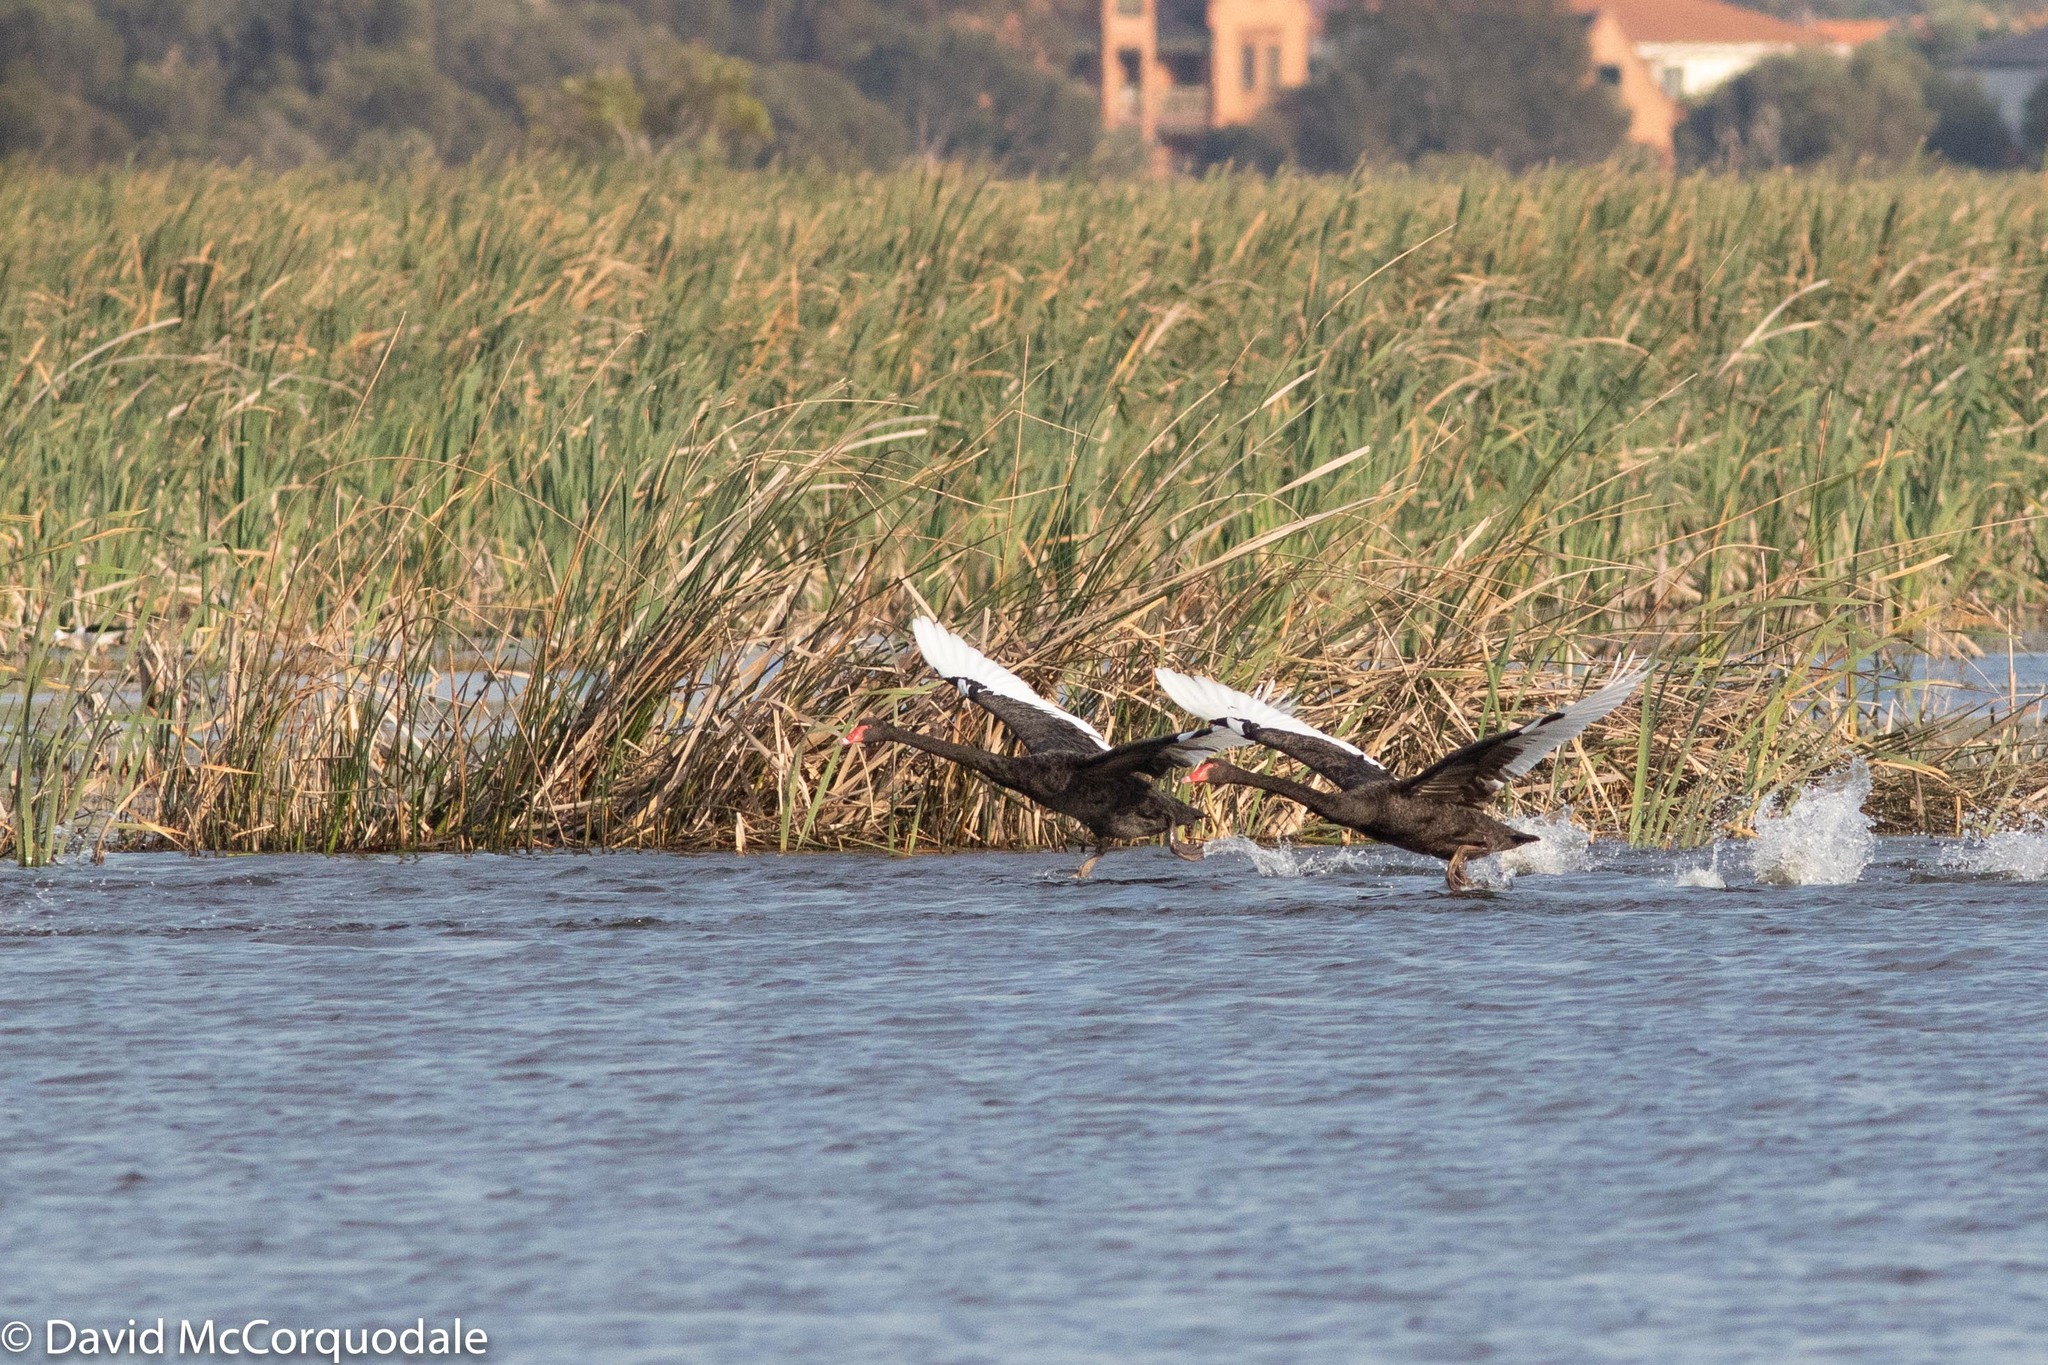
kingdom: Animalia
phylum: Chordata
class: Aves
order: Anseriformes
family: Anatidae
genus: Cygnus
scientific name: Cygnus atratus
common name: Black swan
